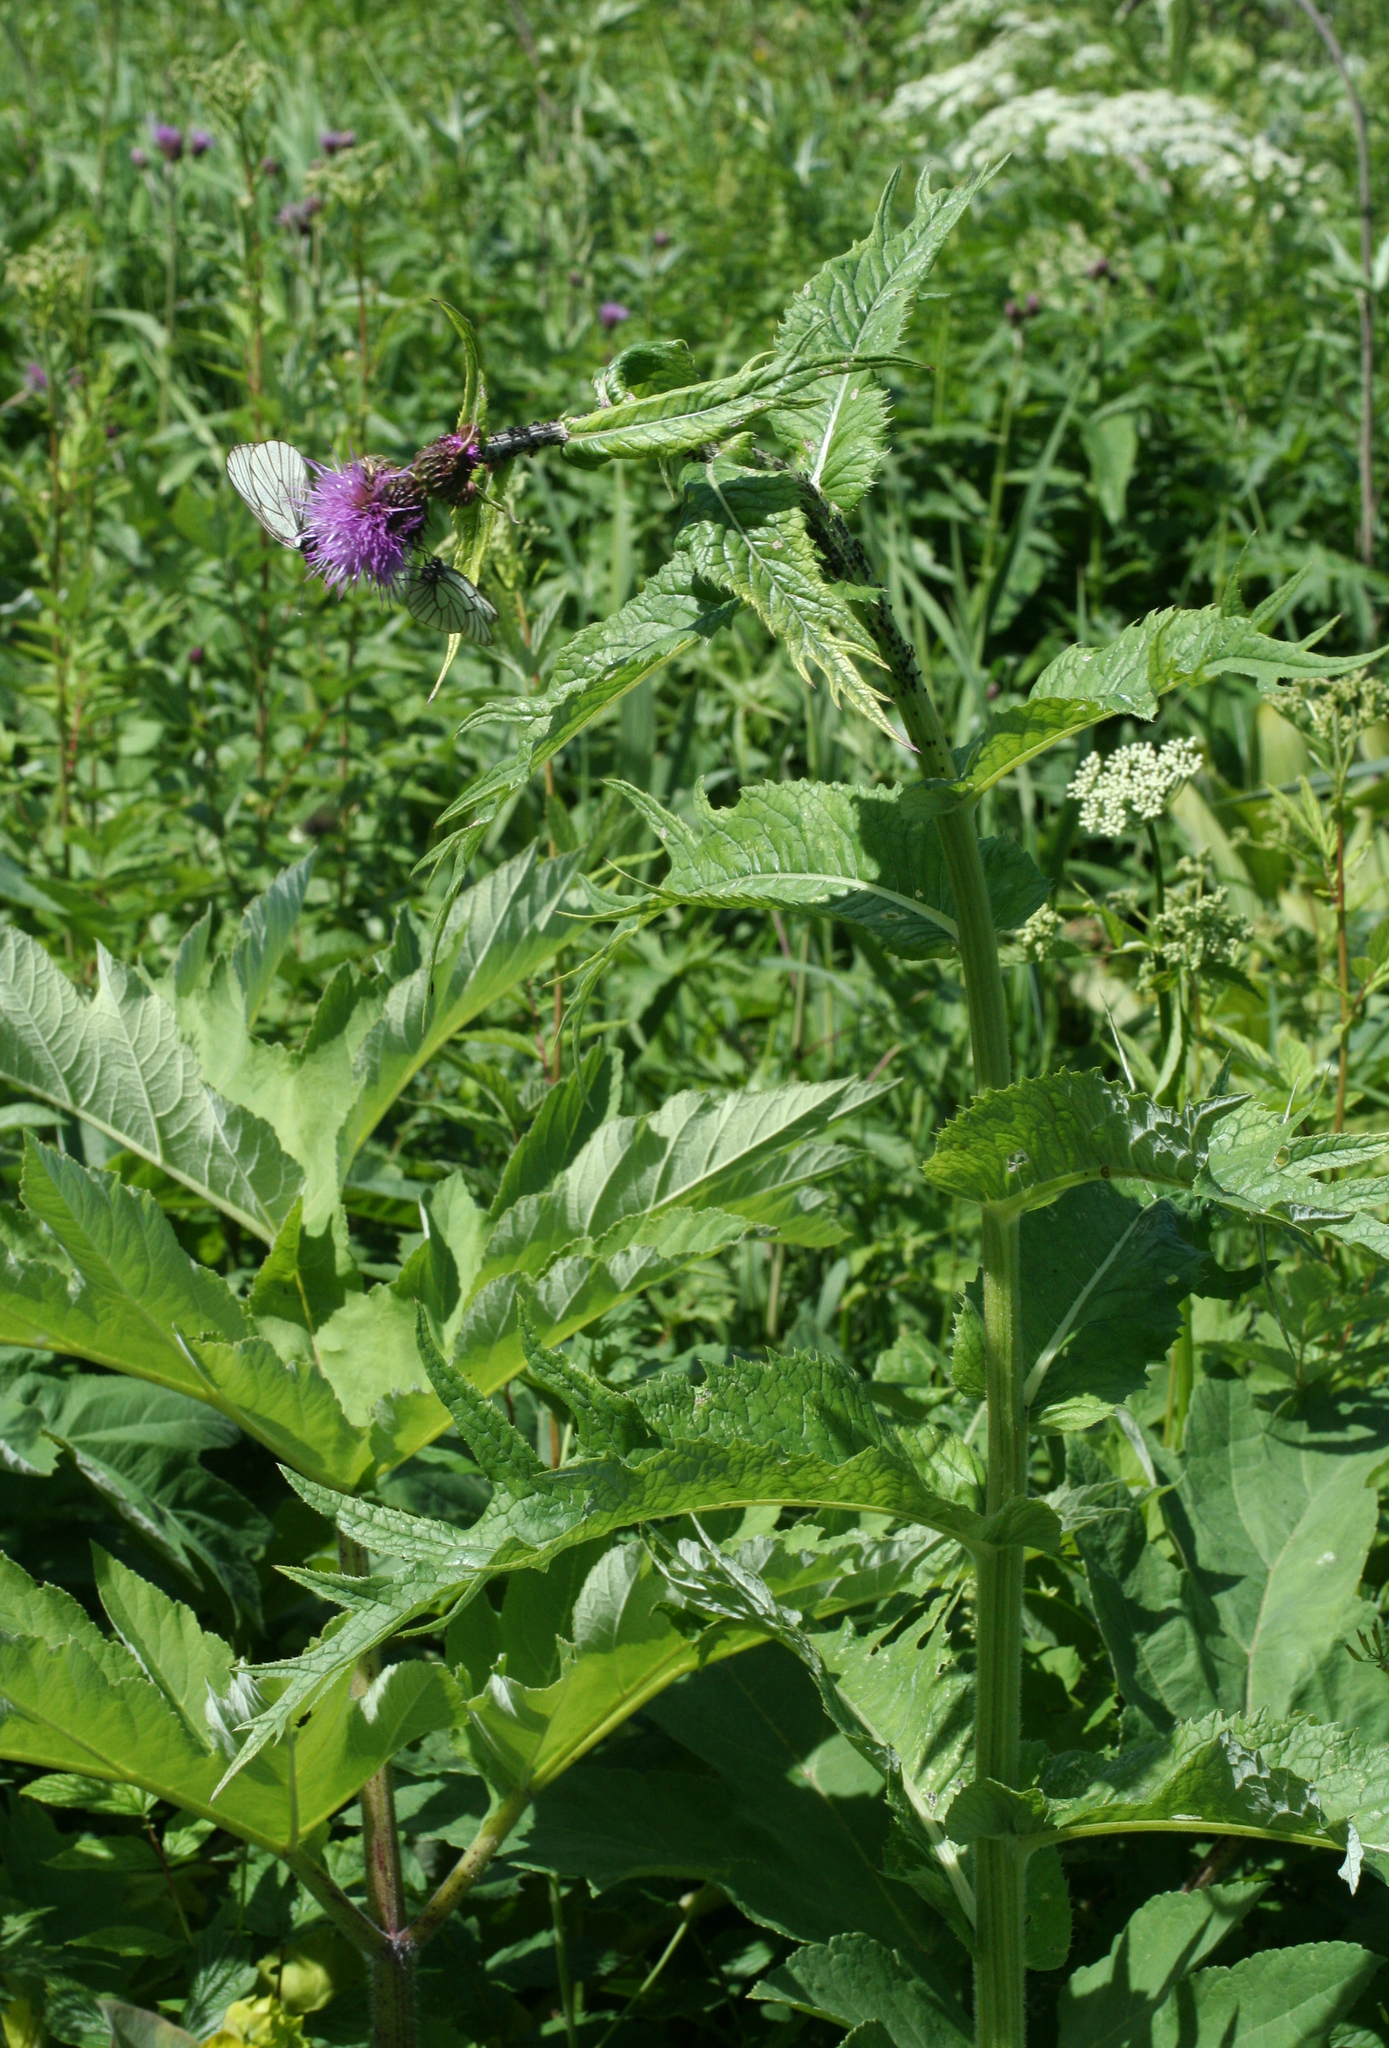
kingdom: Plantae
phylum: Tracheophyta
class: Magnoliopsida
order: Asterales
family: Asteraceae
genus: Cirsium
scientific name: Cirsium heterophyllum
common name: Melancholy thistle
